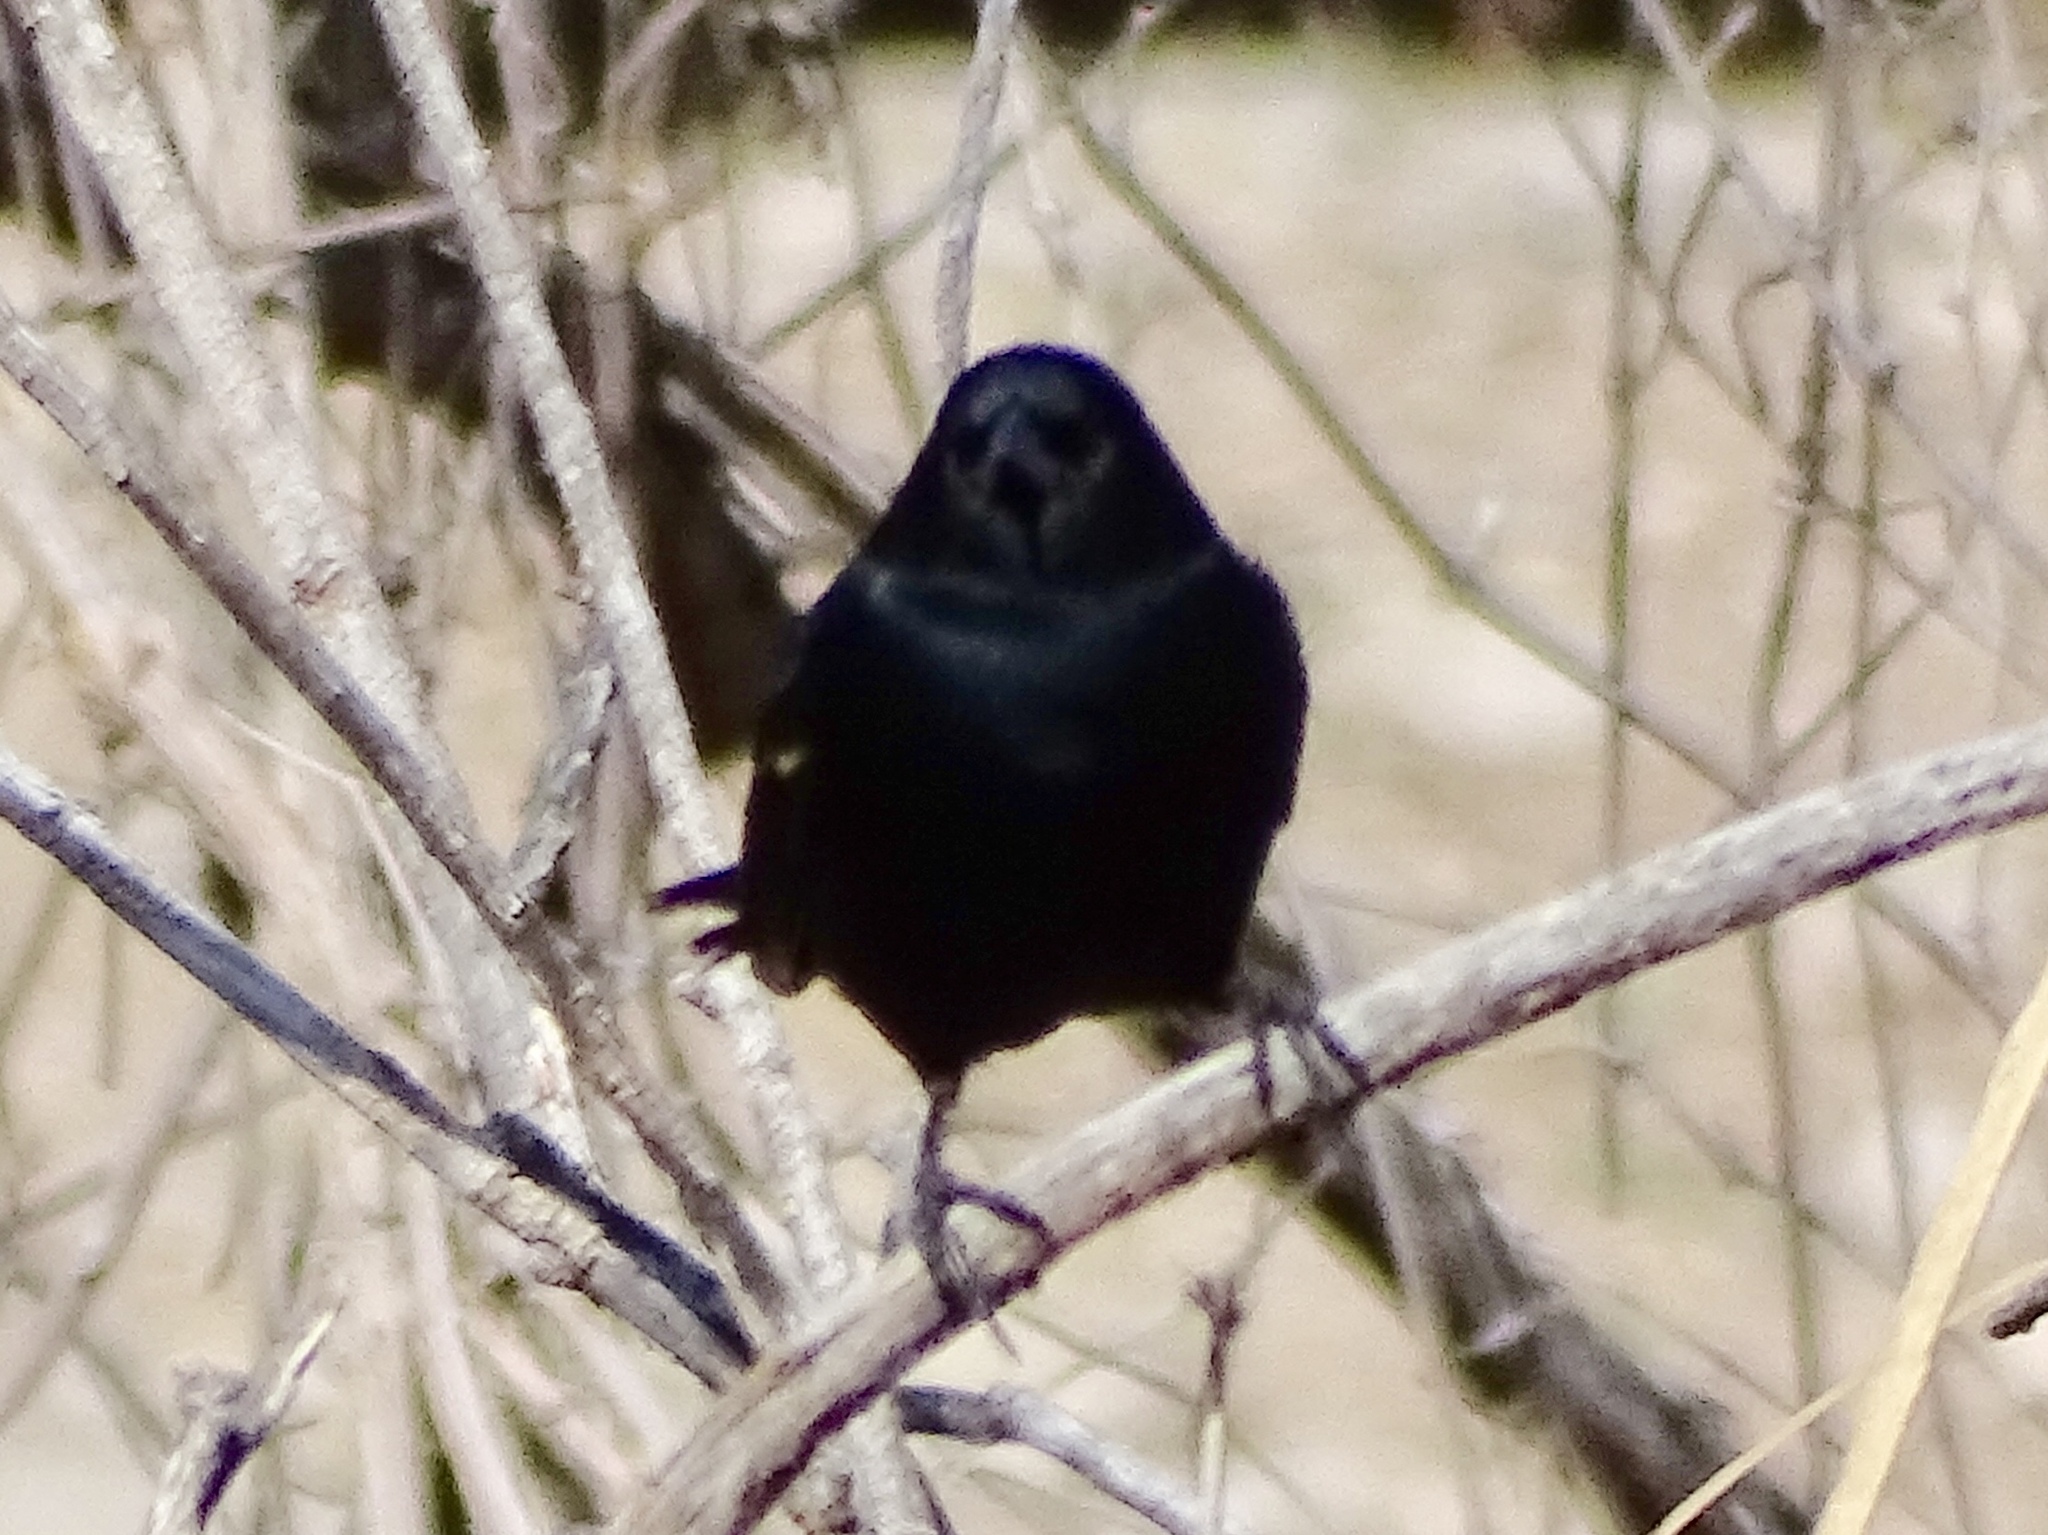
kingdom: Animalia
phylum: Chordata
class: Aves
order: Passeriformes
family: Icteridae
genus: Agelaius
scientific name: Agelaius phoeniceus
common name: Red-winged blackbird
